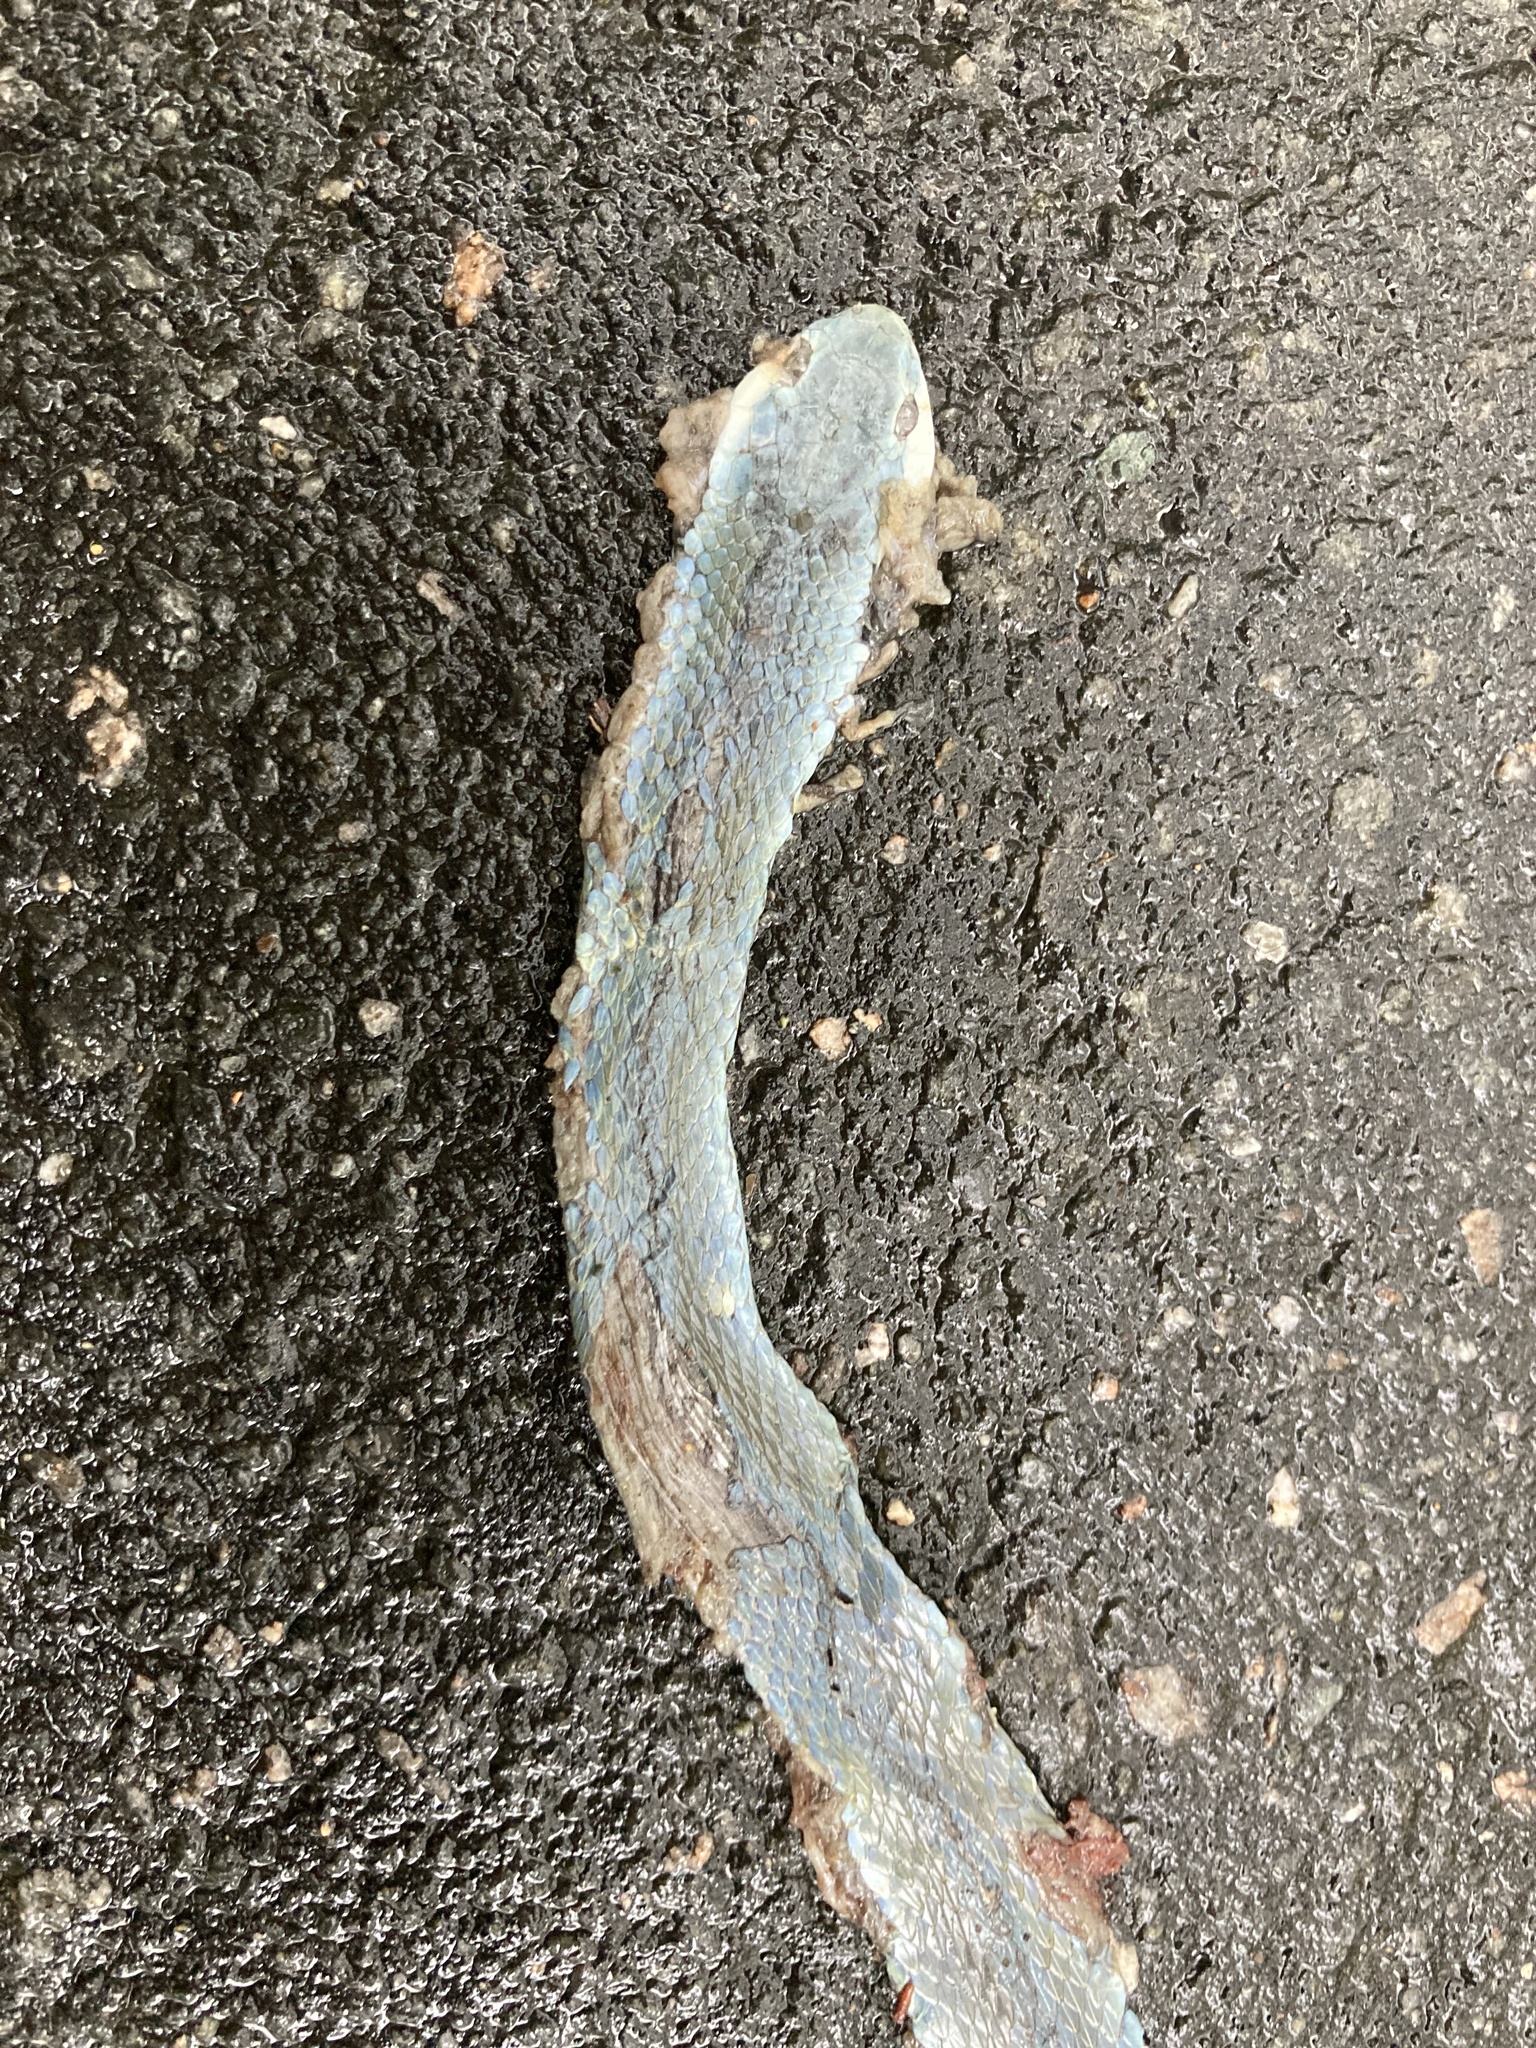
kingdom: Animalia
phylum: Chordata
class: Squamata
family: Colubridae
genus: Opheodrys
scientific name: Opheodrys aestivus
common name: Rough greensnake
